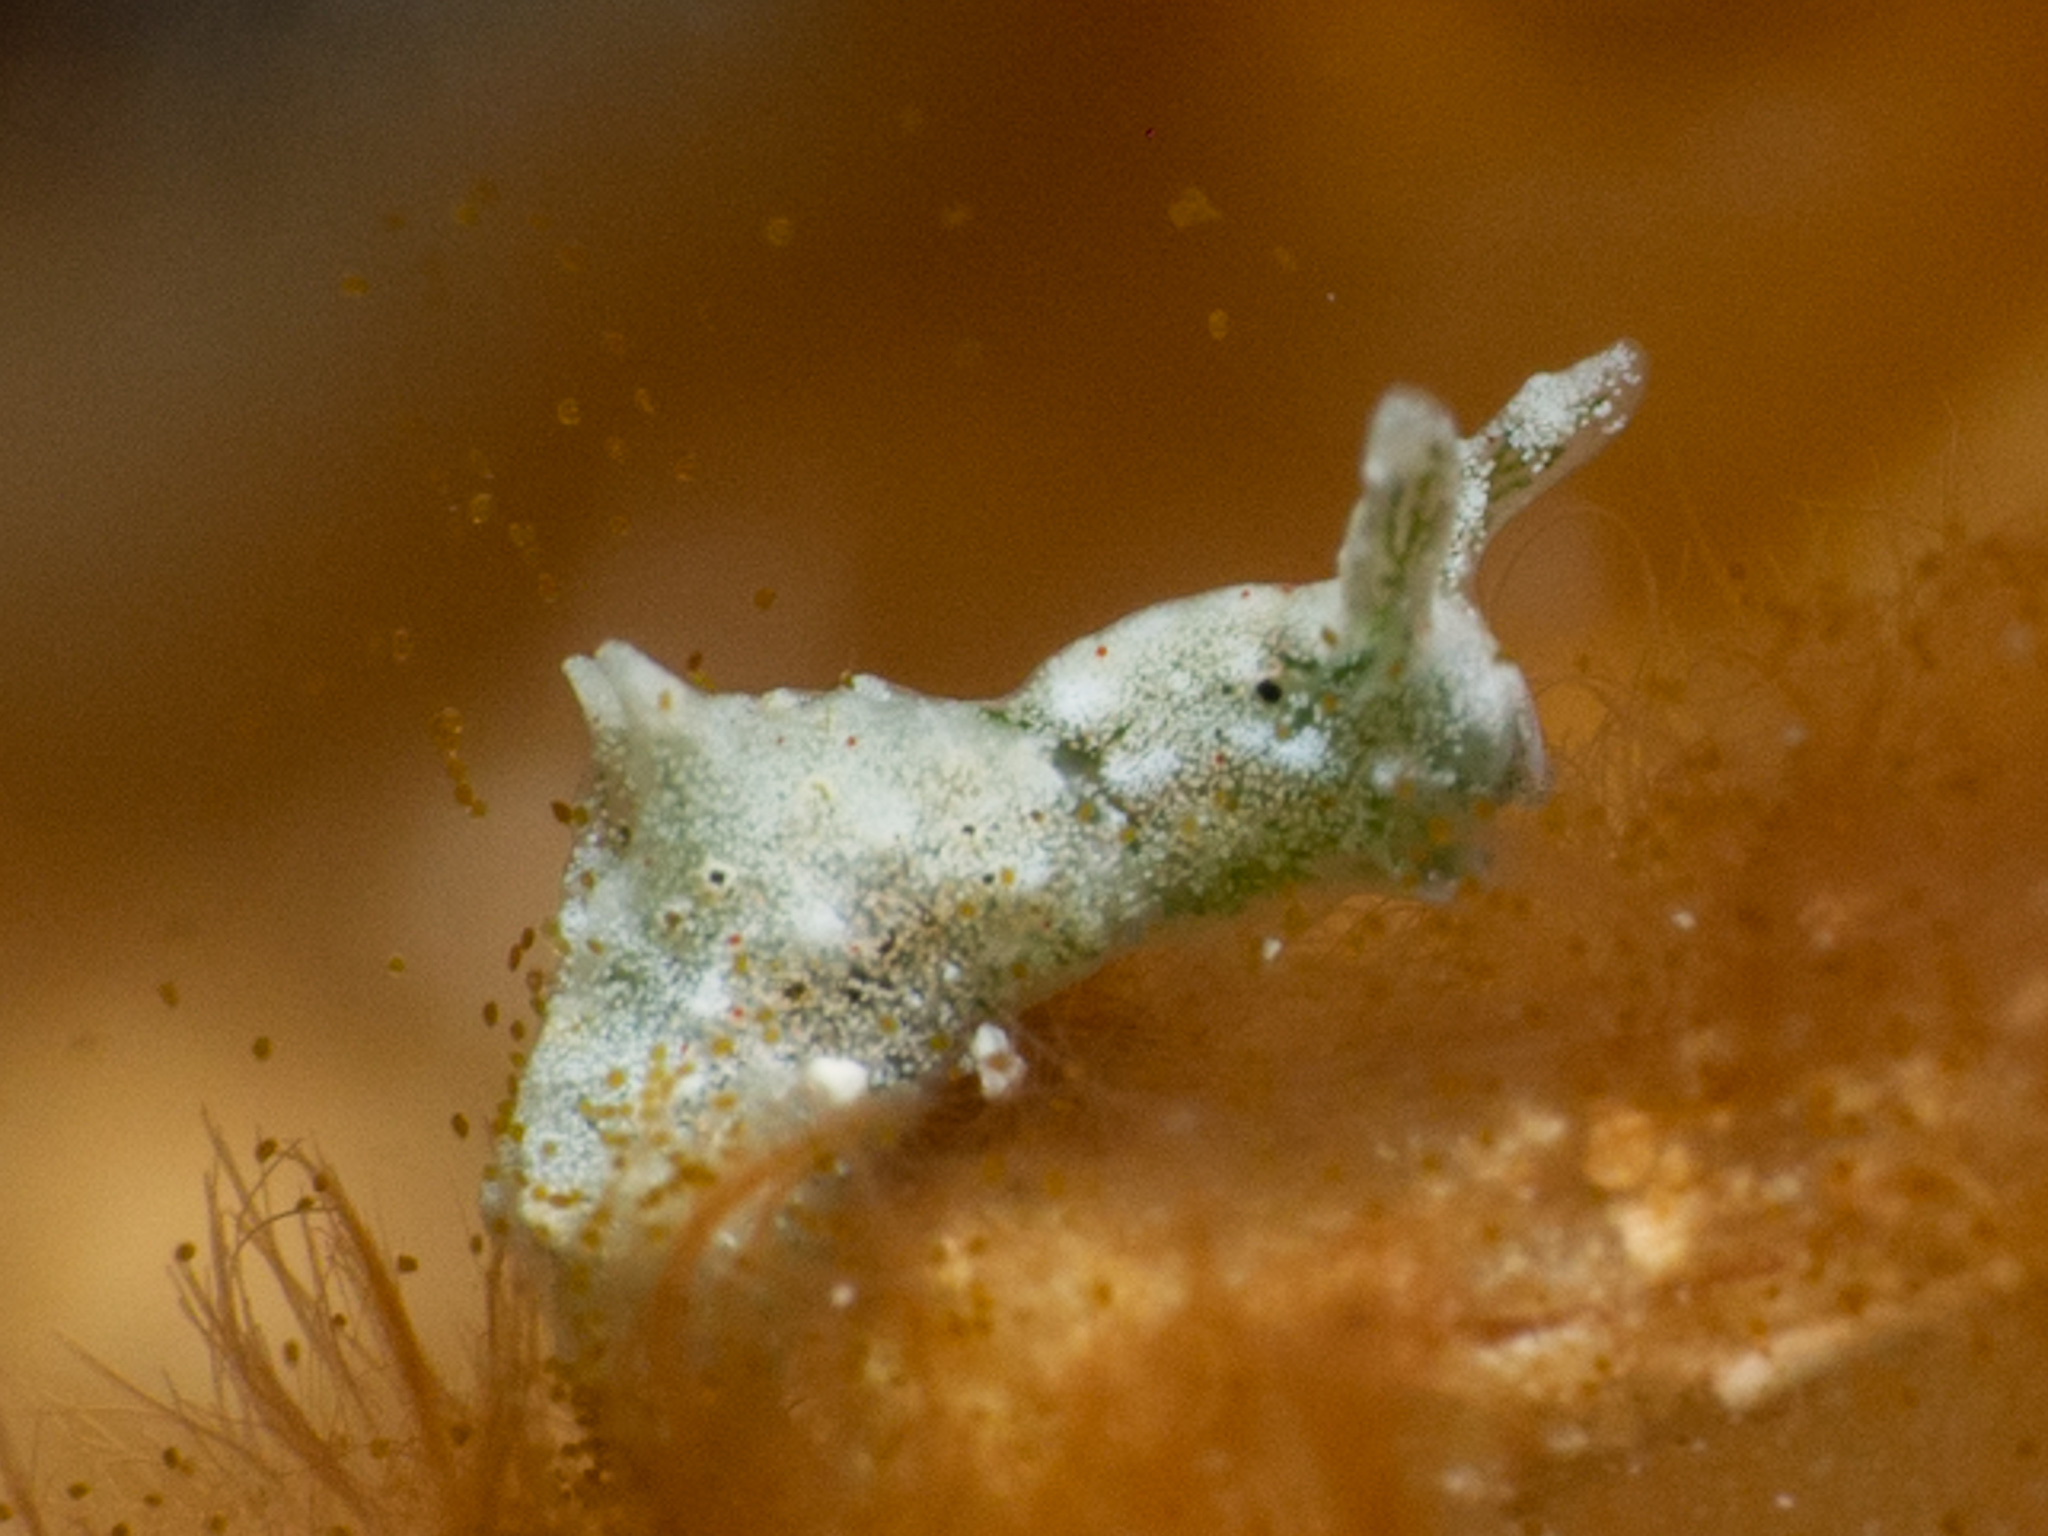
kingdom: Animalia
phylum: Mollusca
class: Gastropoda
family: Plakobranchidae
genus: Elysia
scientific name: Elysia cornigera
